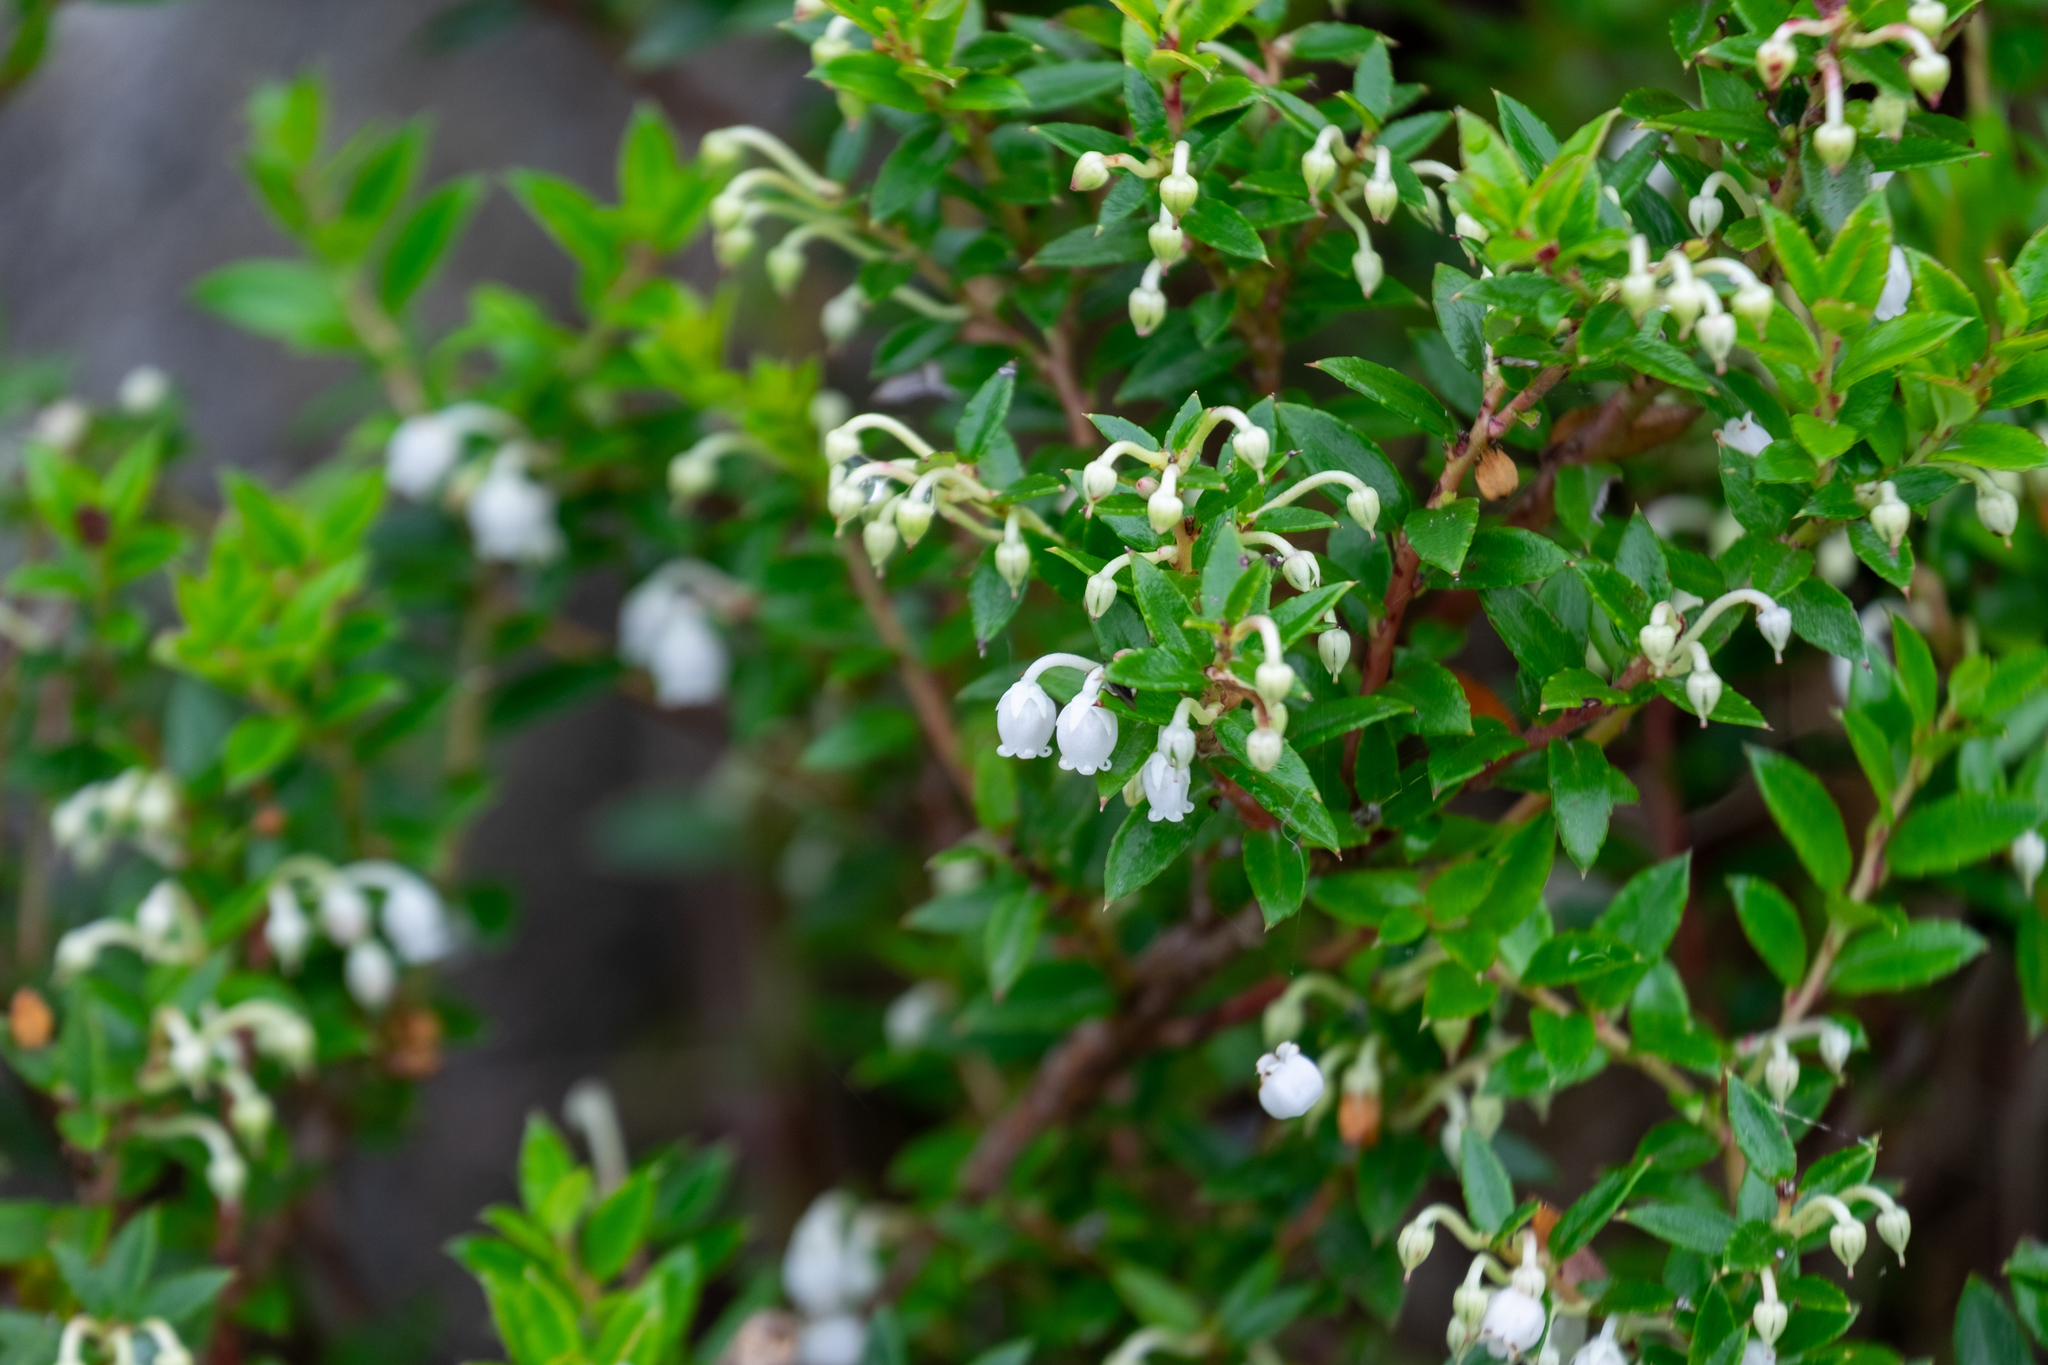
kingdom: Plantae
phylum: Tracheophyta
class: Magnoliopsida
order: Ericales
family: Ericaceae
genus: Gaultheria
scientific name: Gaultheria mucronata
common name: Prickly heath
